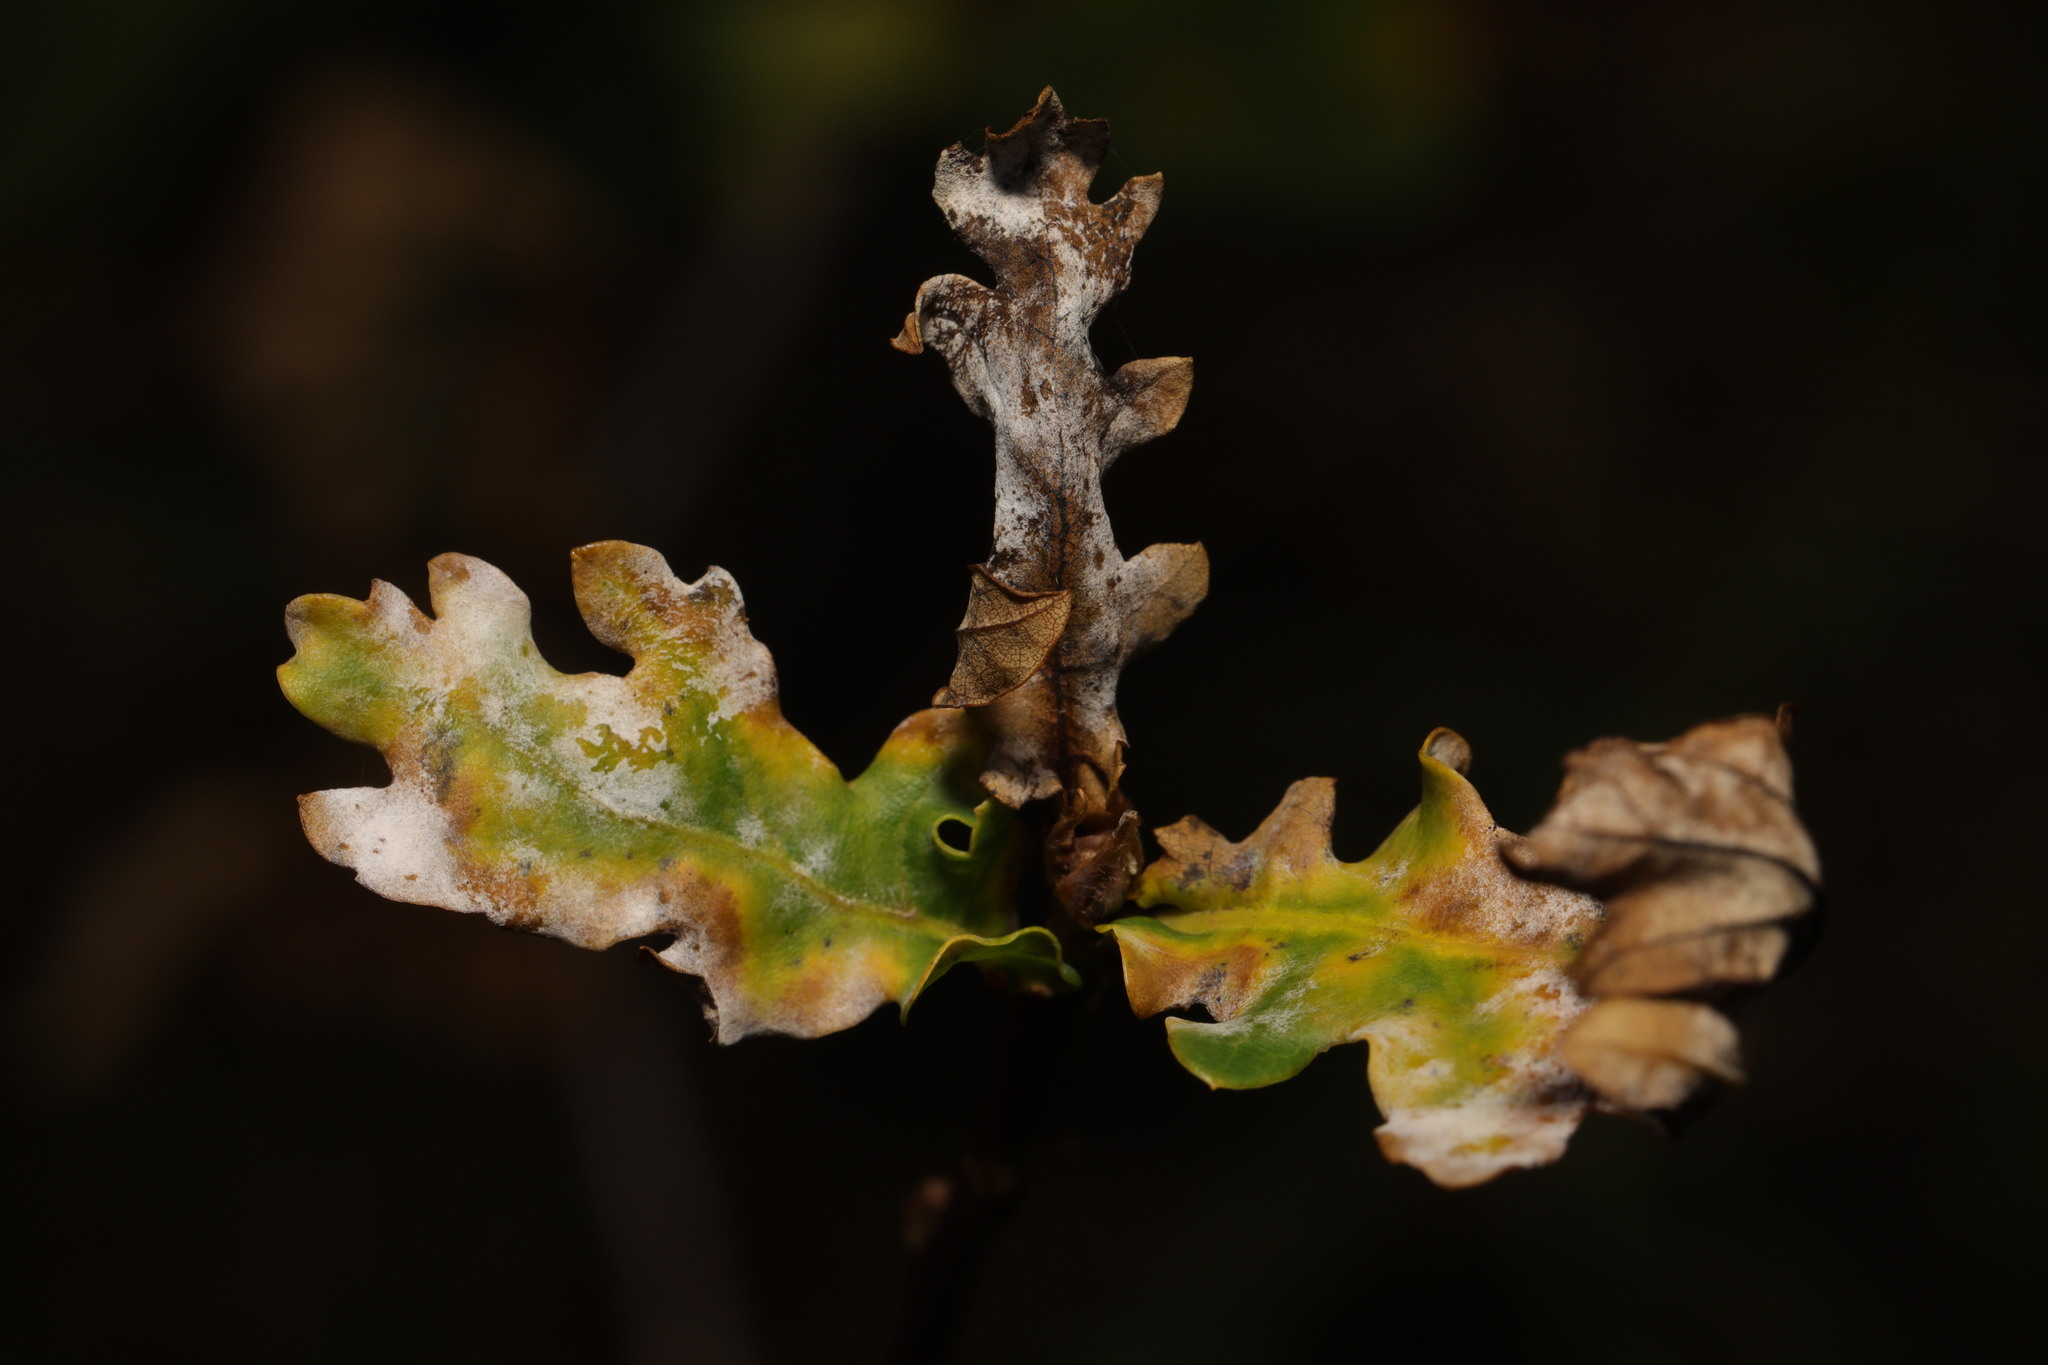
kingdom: Fungi
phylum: Ascomycota
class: Leotiomycetes
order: Helotiales
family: Erysiphaceae
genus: Erysiphe
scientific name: Erysiphe alphitoides
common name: Oak mildew
